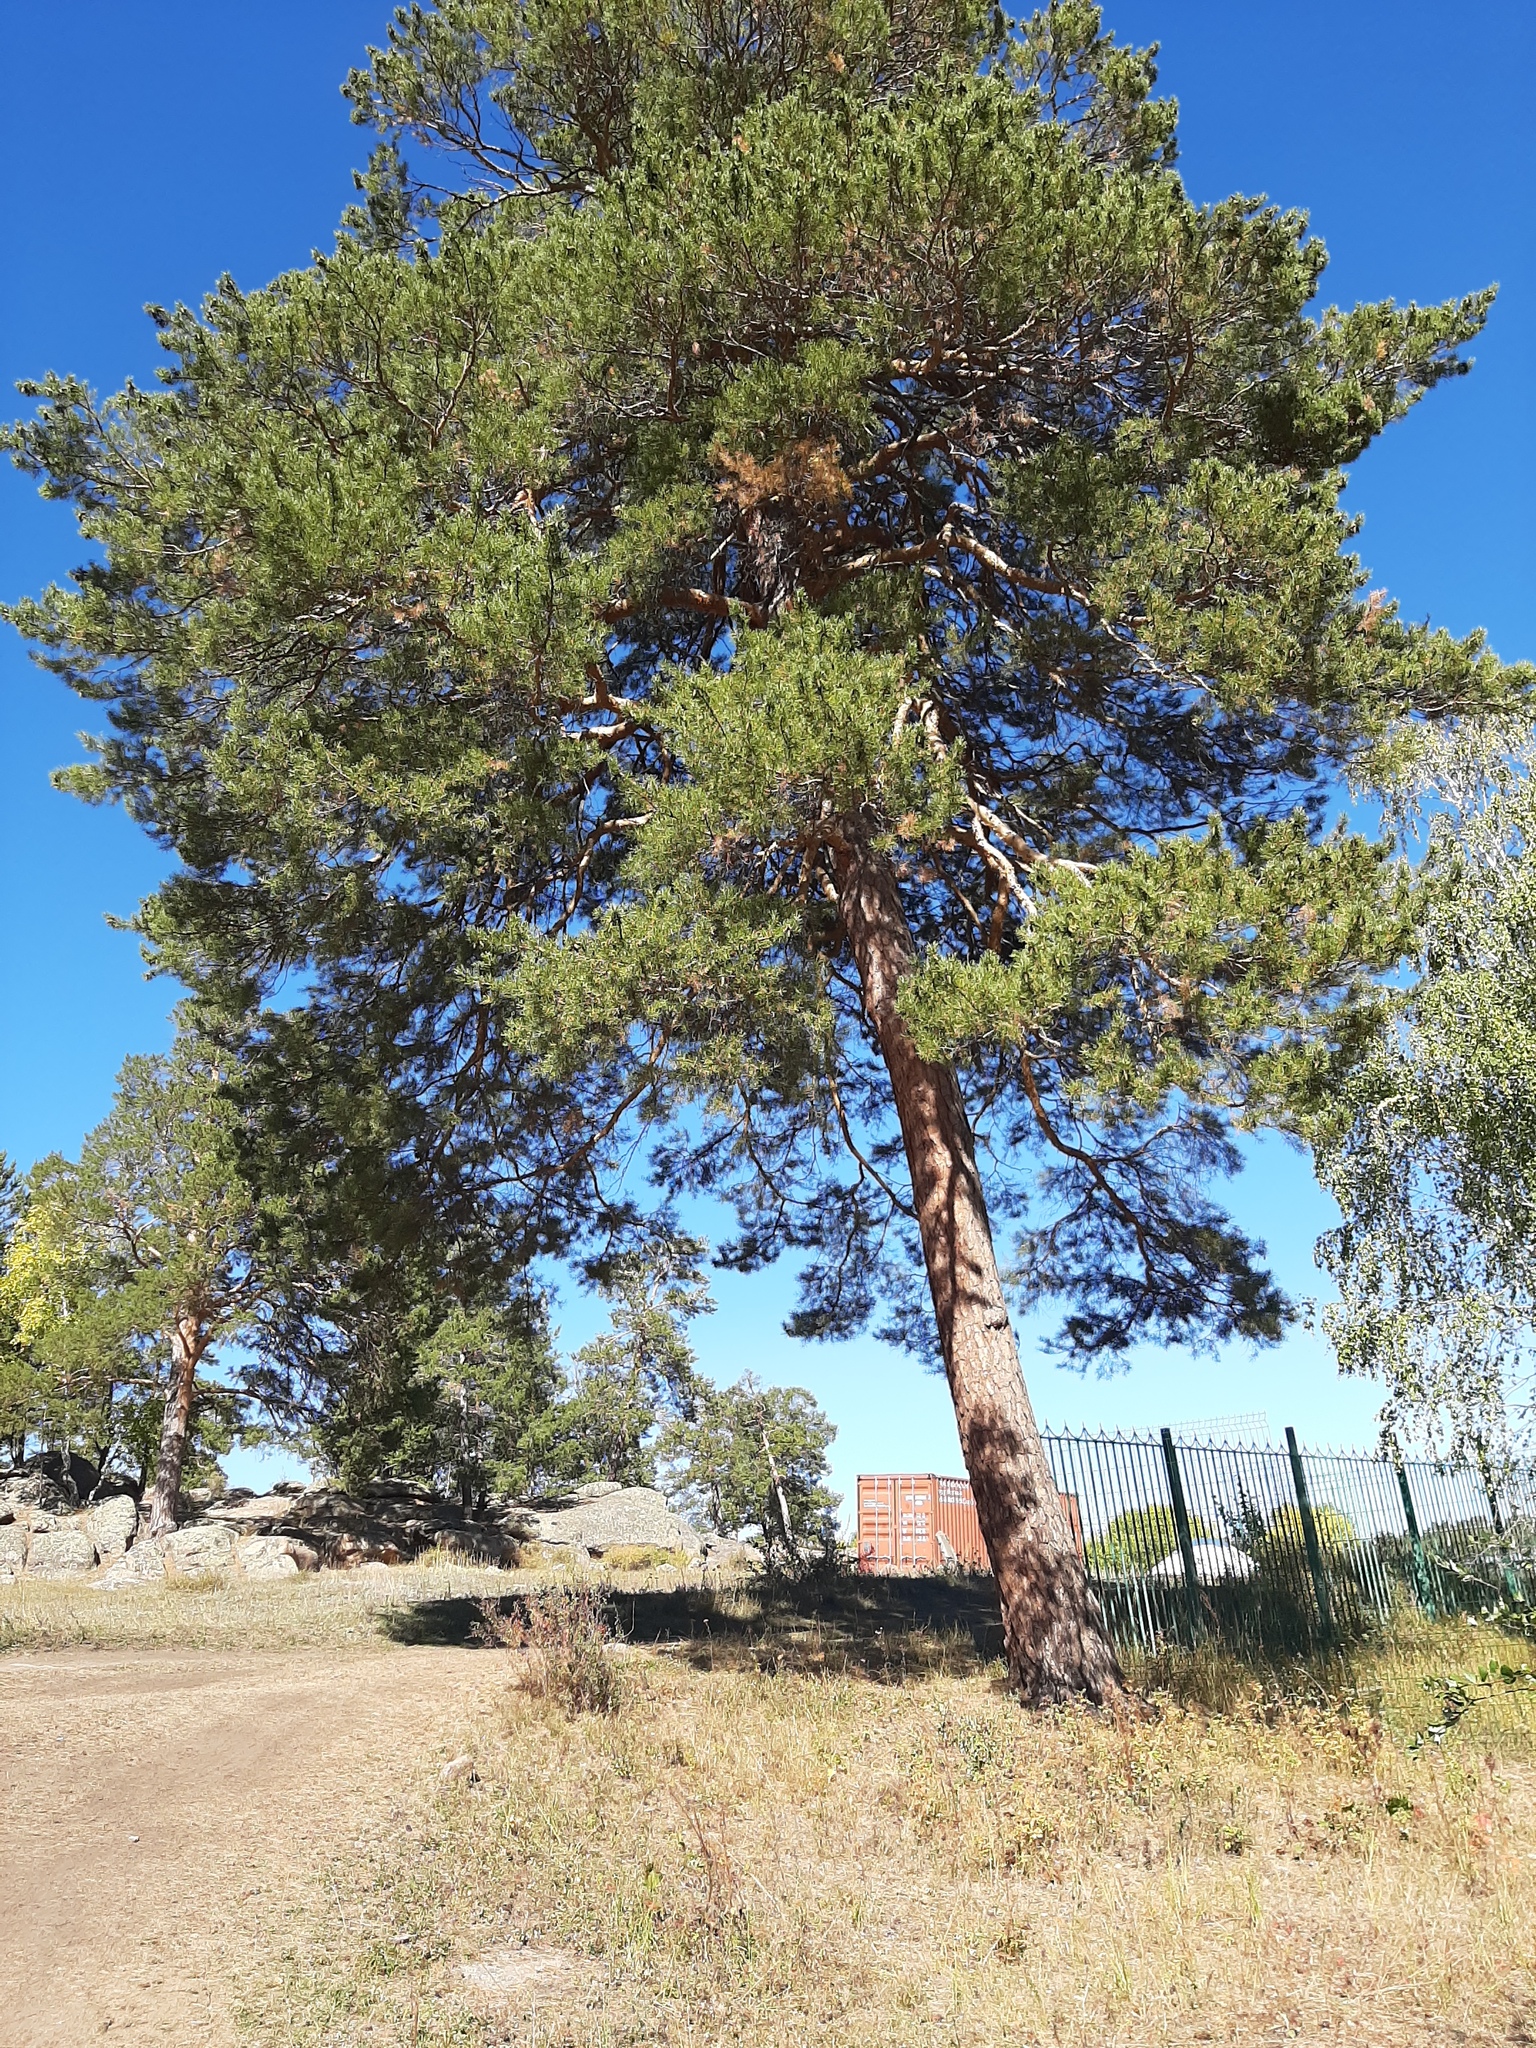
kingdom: Plantae
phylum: Tracheophyta
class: Pinopsida
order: Pinales
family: Pinaceae
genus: Pinus
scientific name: Pinus sylvestris
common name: Scots pine
